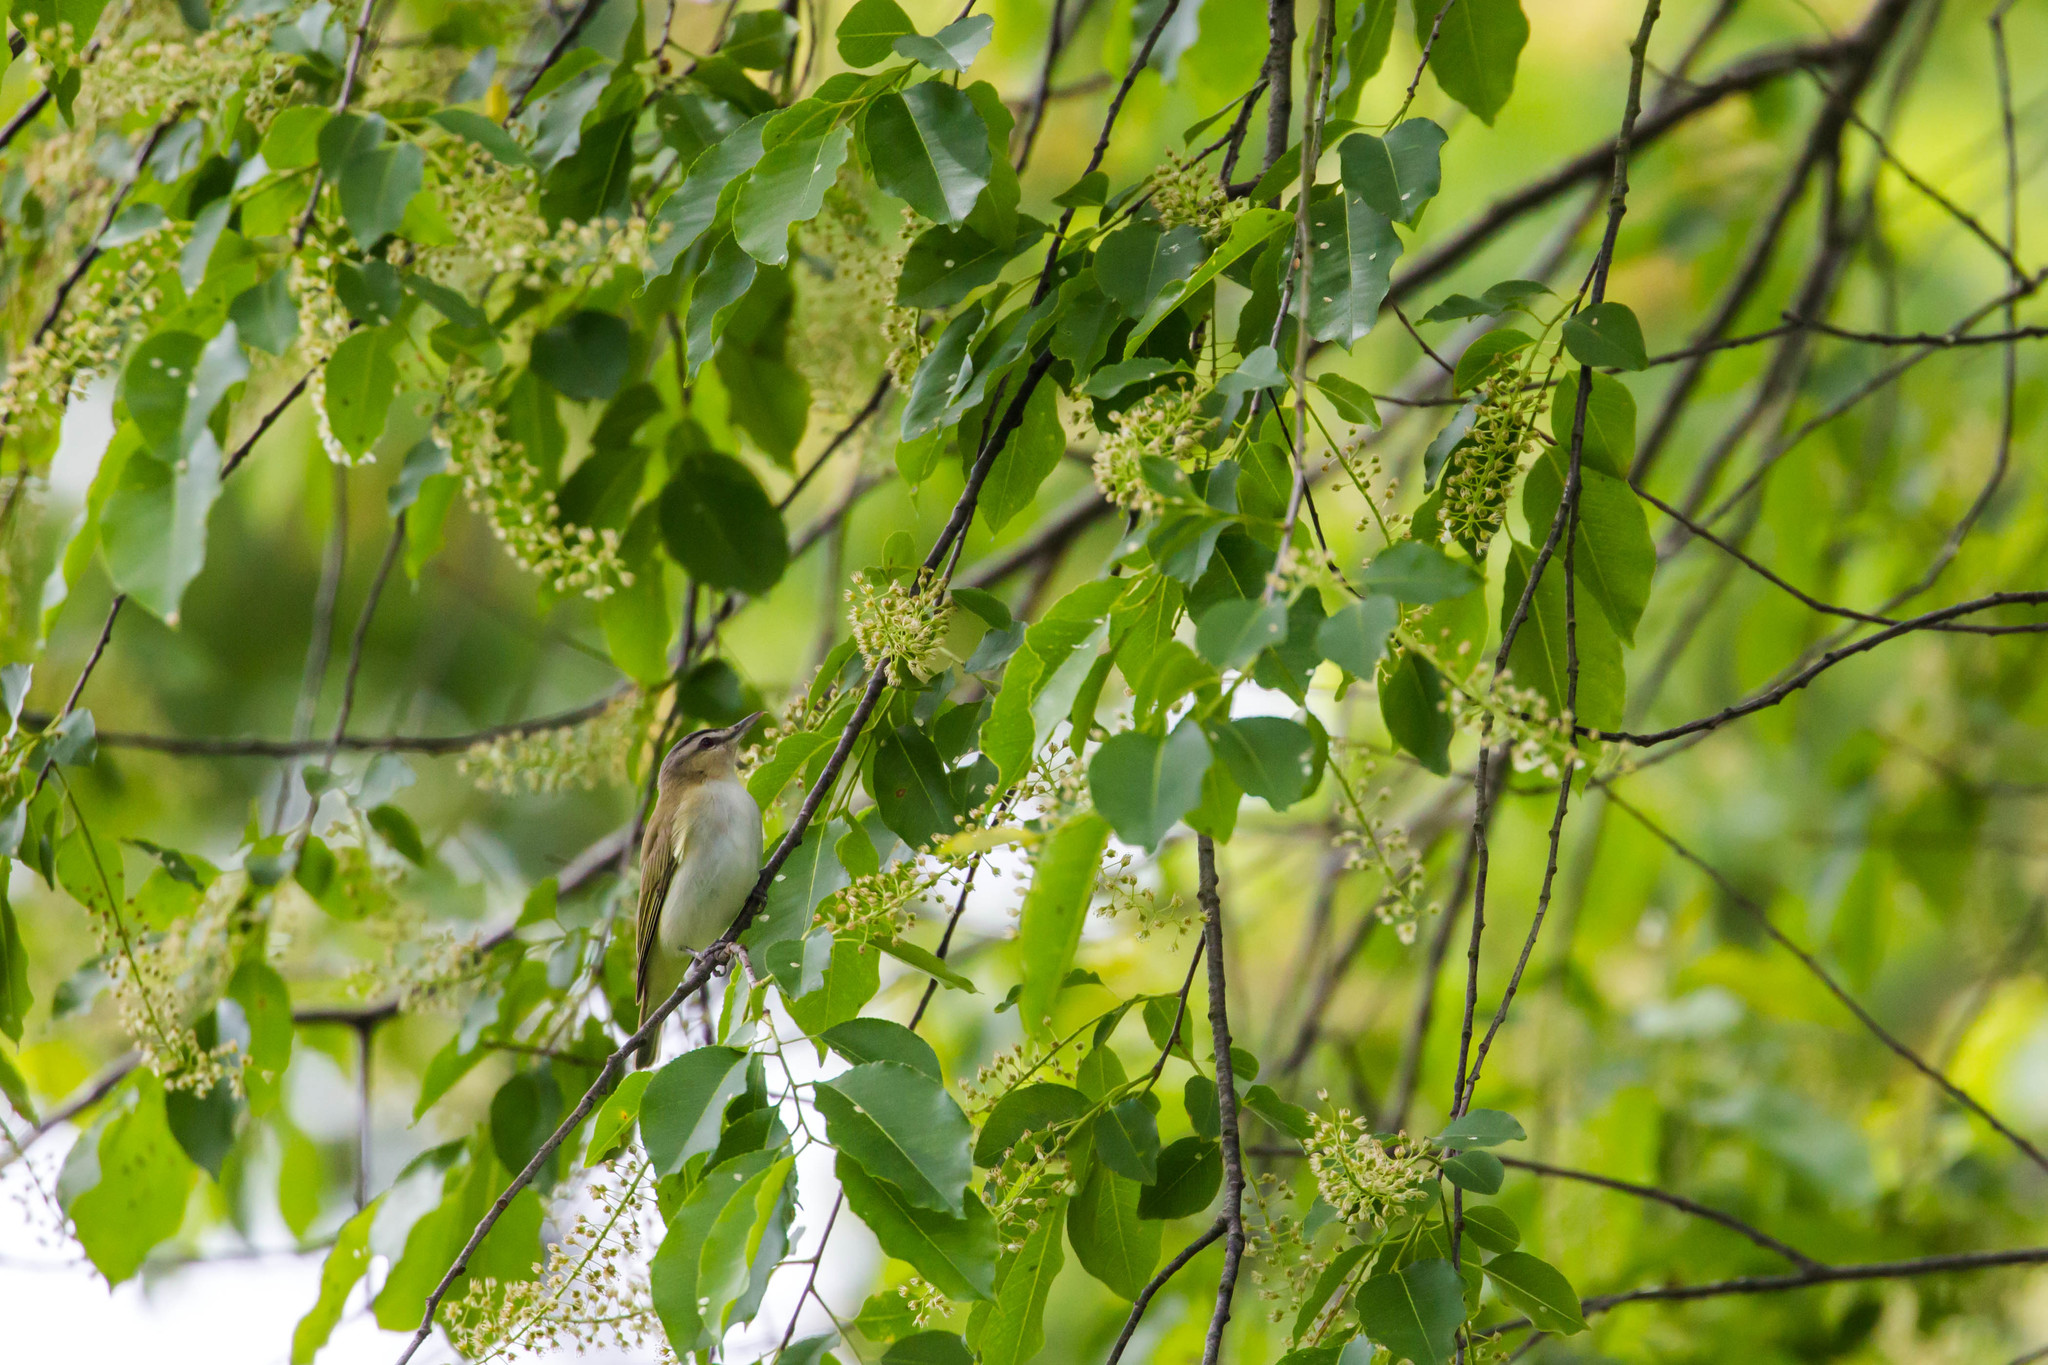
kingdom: Animalia
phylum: Chordata
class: Aves
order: Passeriformes
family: Vireonidae
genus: Vireo
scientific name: Vireo olivaceus
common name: Red-eyed vireo
